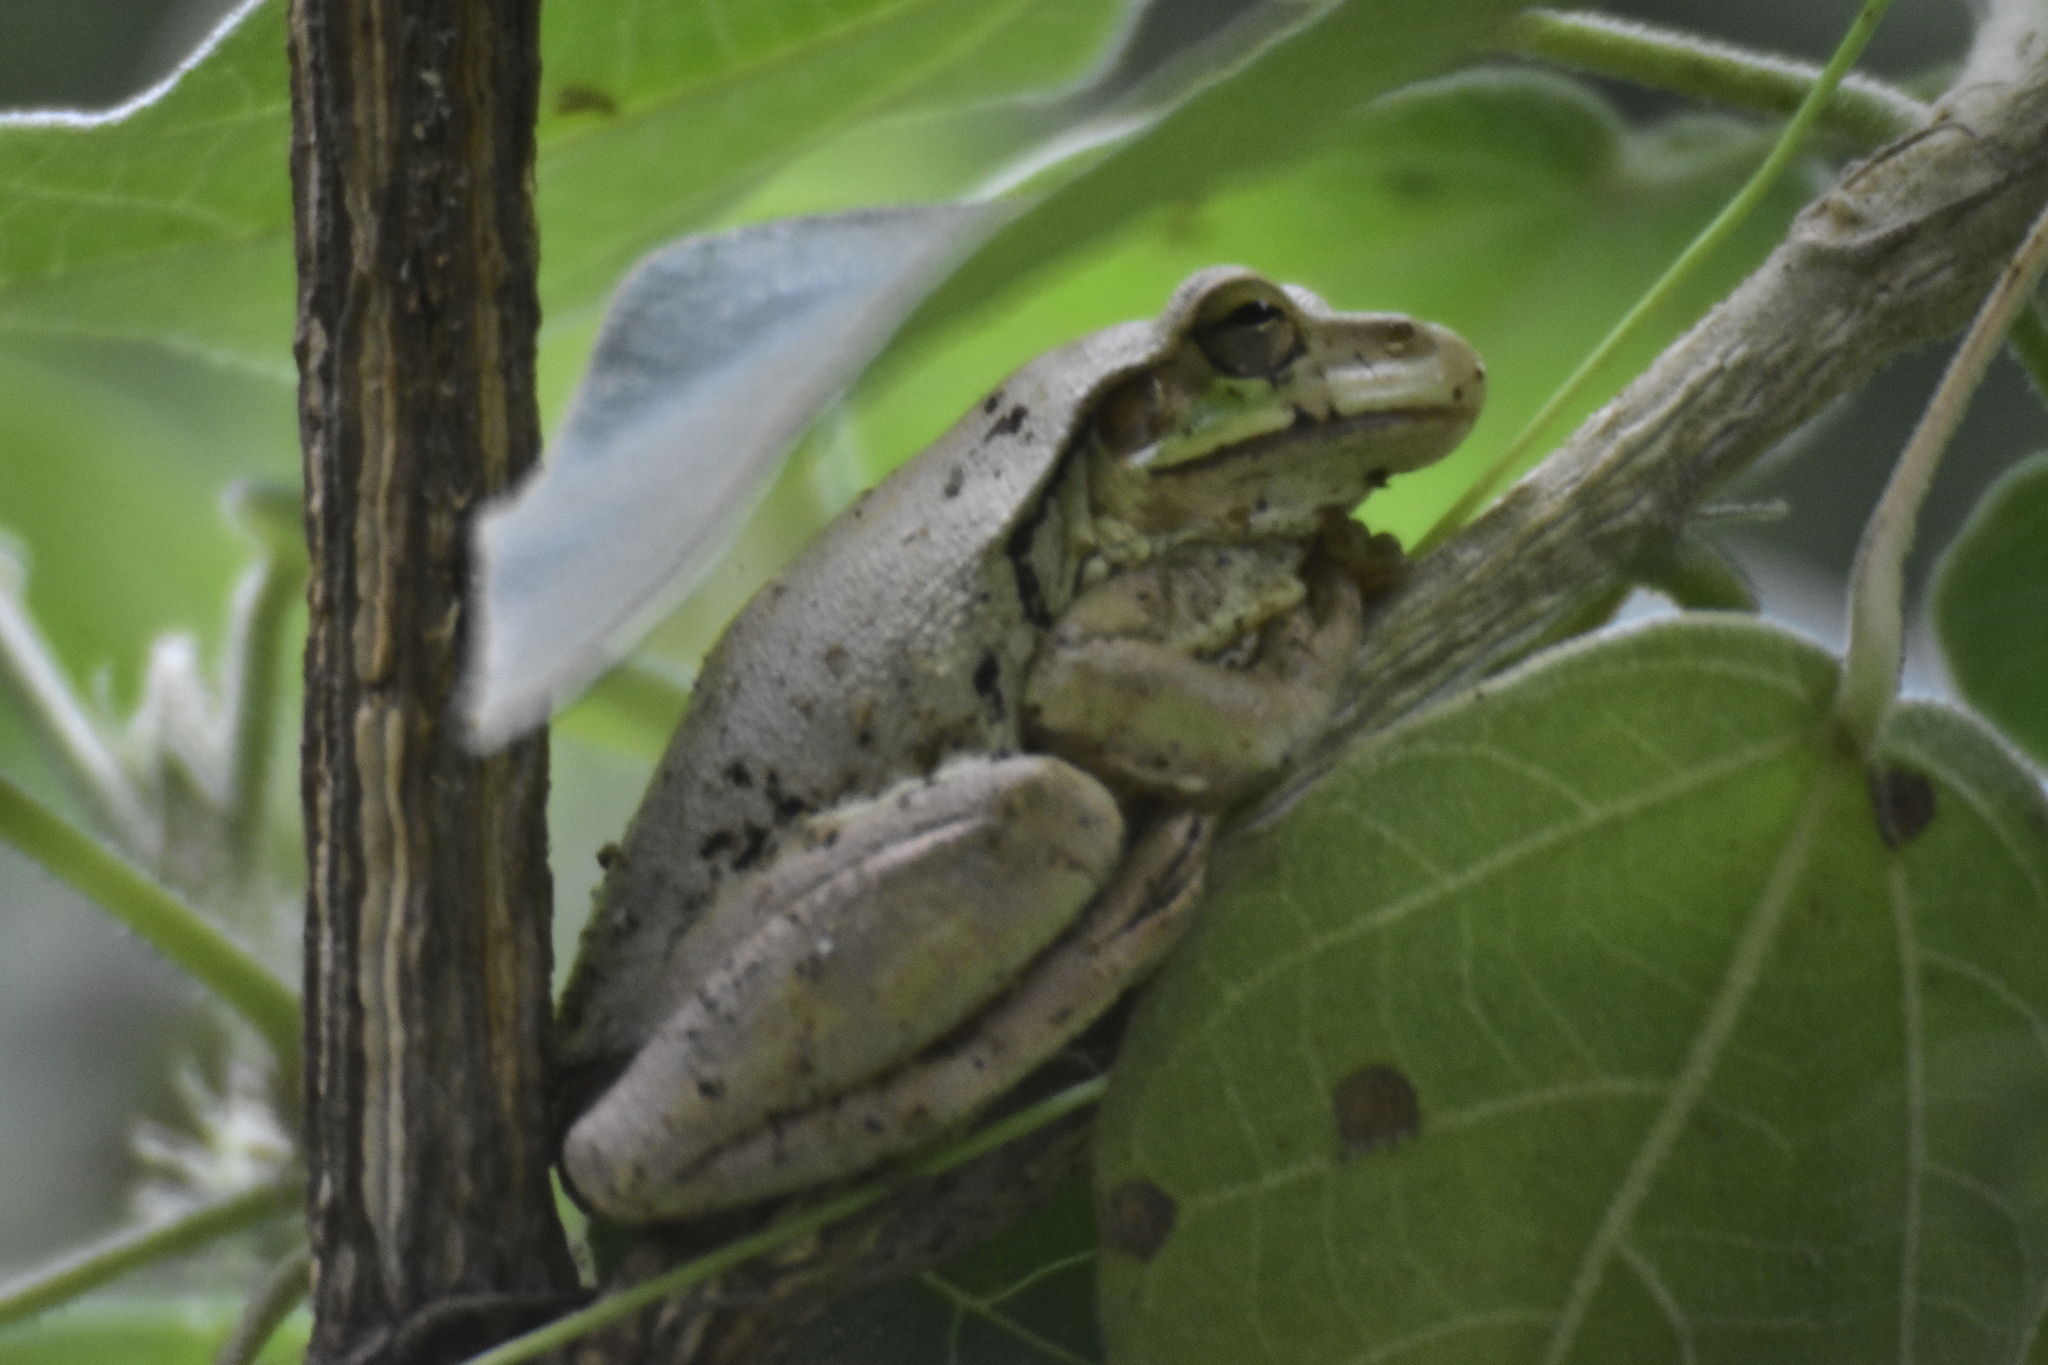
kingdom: Animalia
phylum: Chordata
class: Amphibia
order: Anura
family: Hylidae
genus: Smilisca
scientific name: Smilisca baudinii
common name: Mexican smilisca
